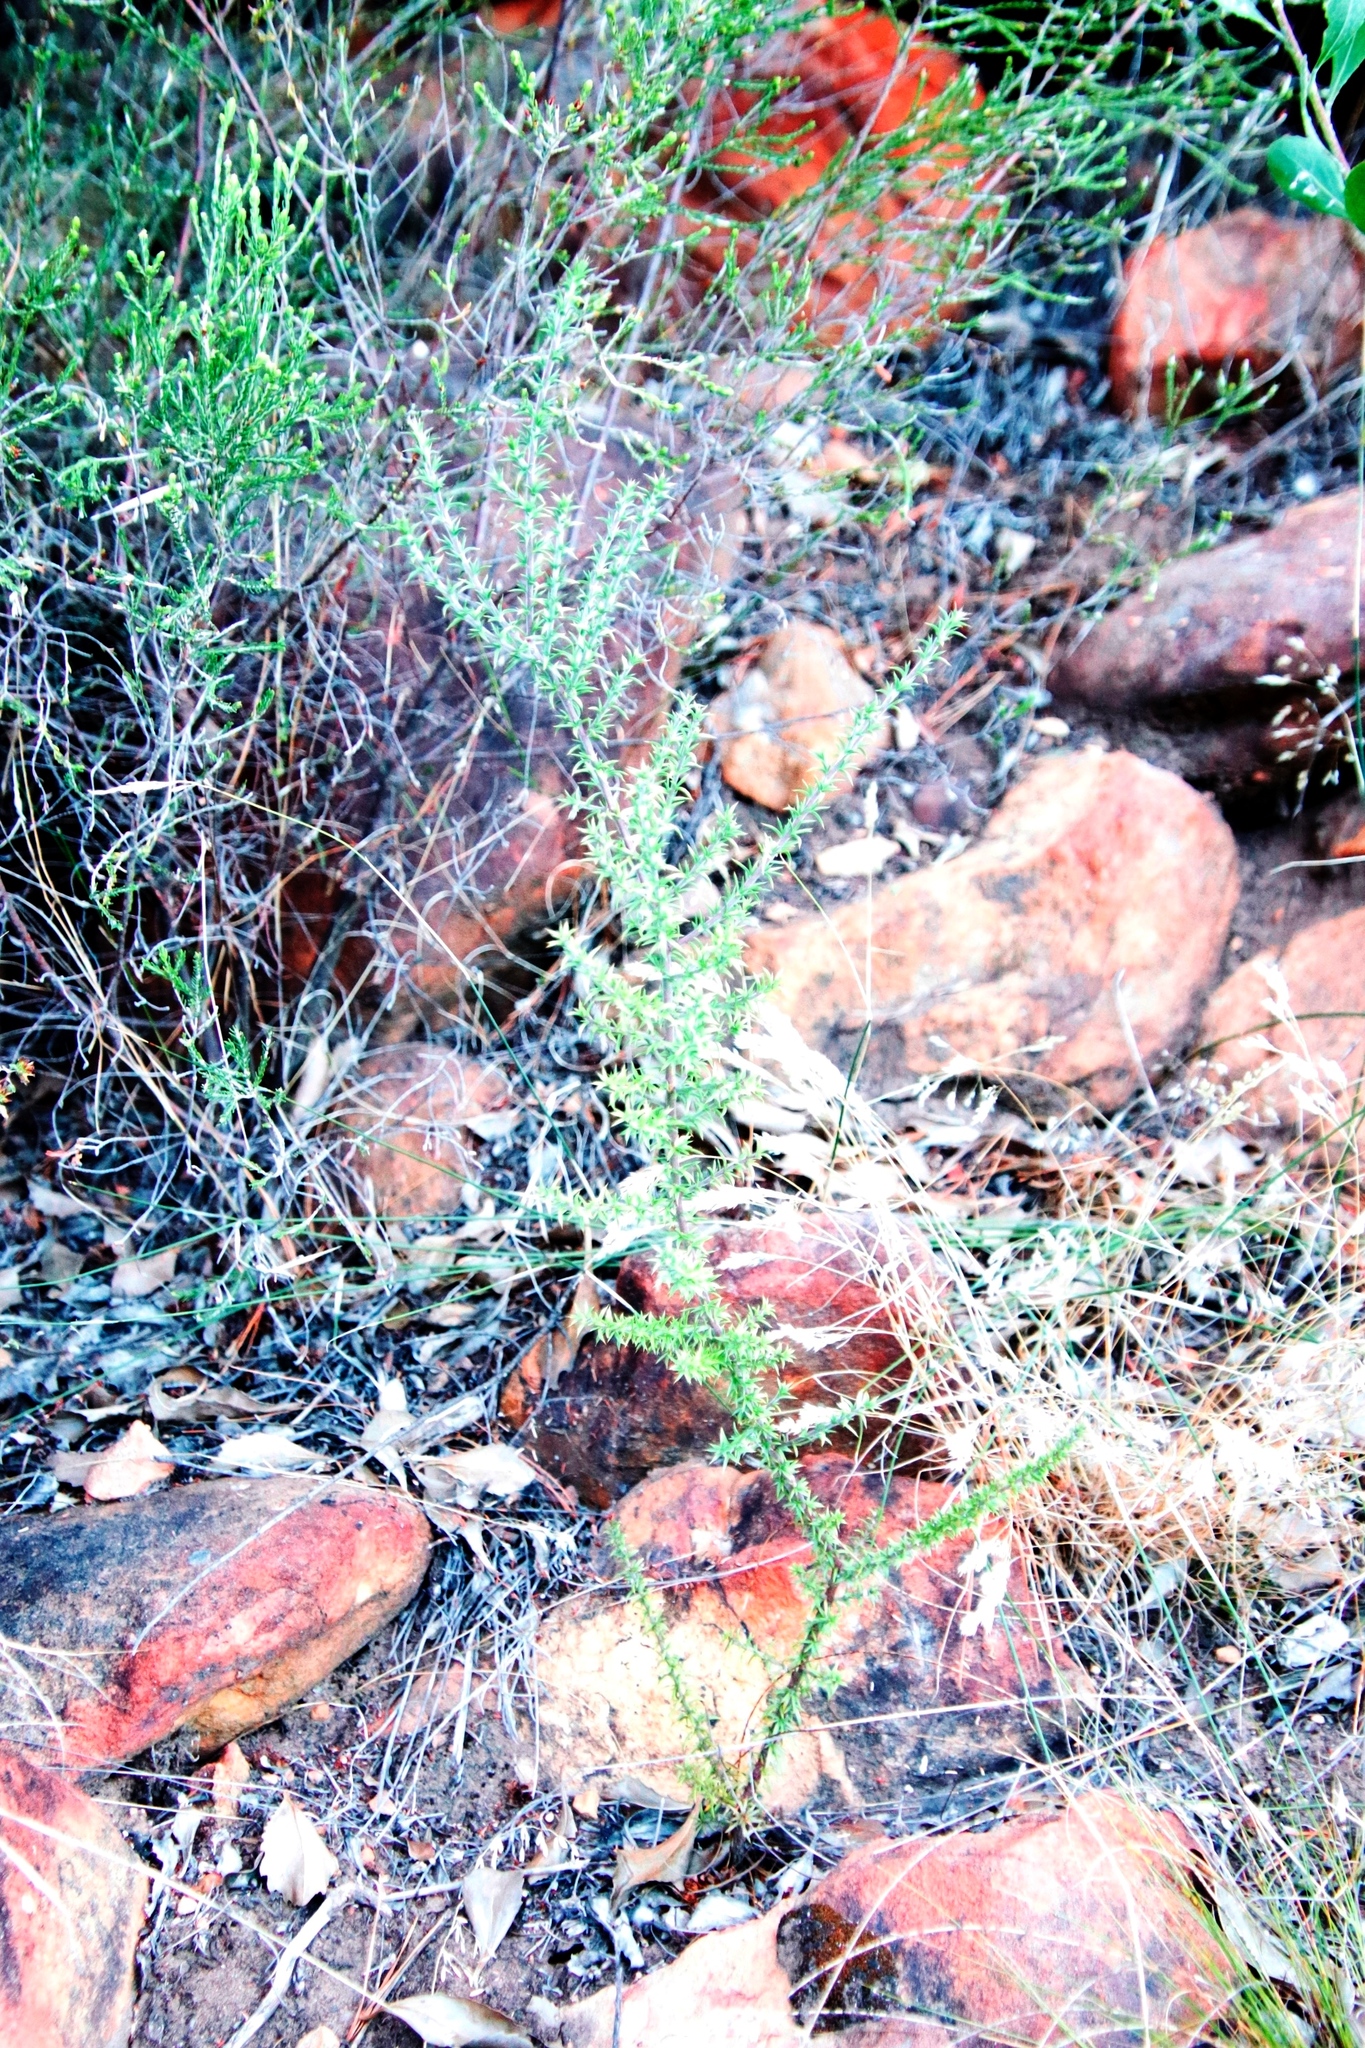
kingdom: Plantae
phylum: Tracheophyta
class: Magnoliopsida
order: Fabales
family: Polygalaceae
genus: Muraltia
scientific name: Muraltia heisteria
